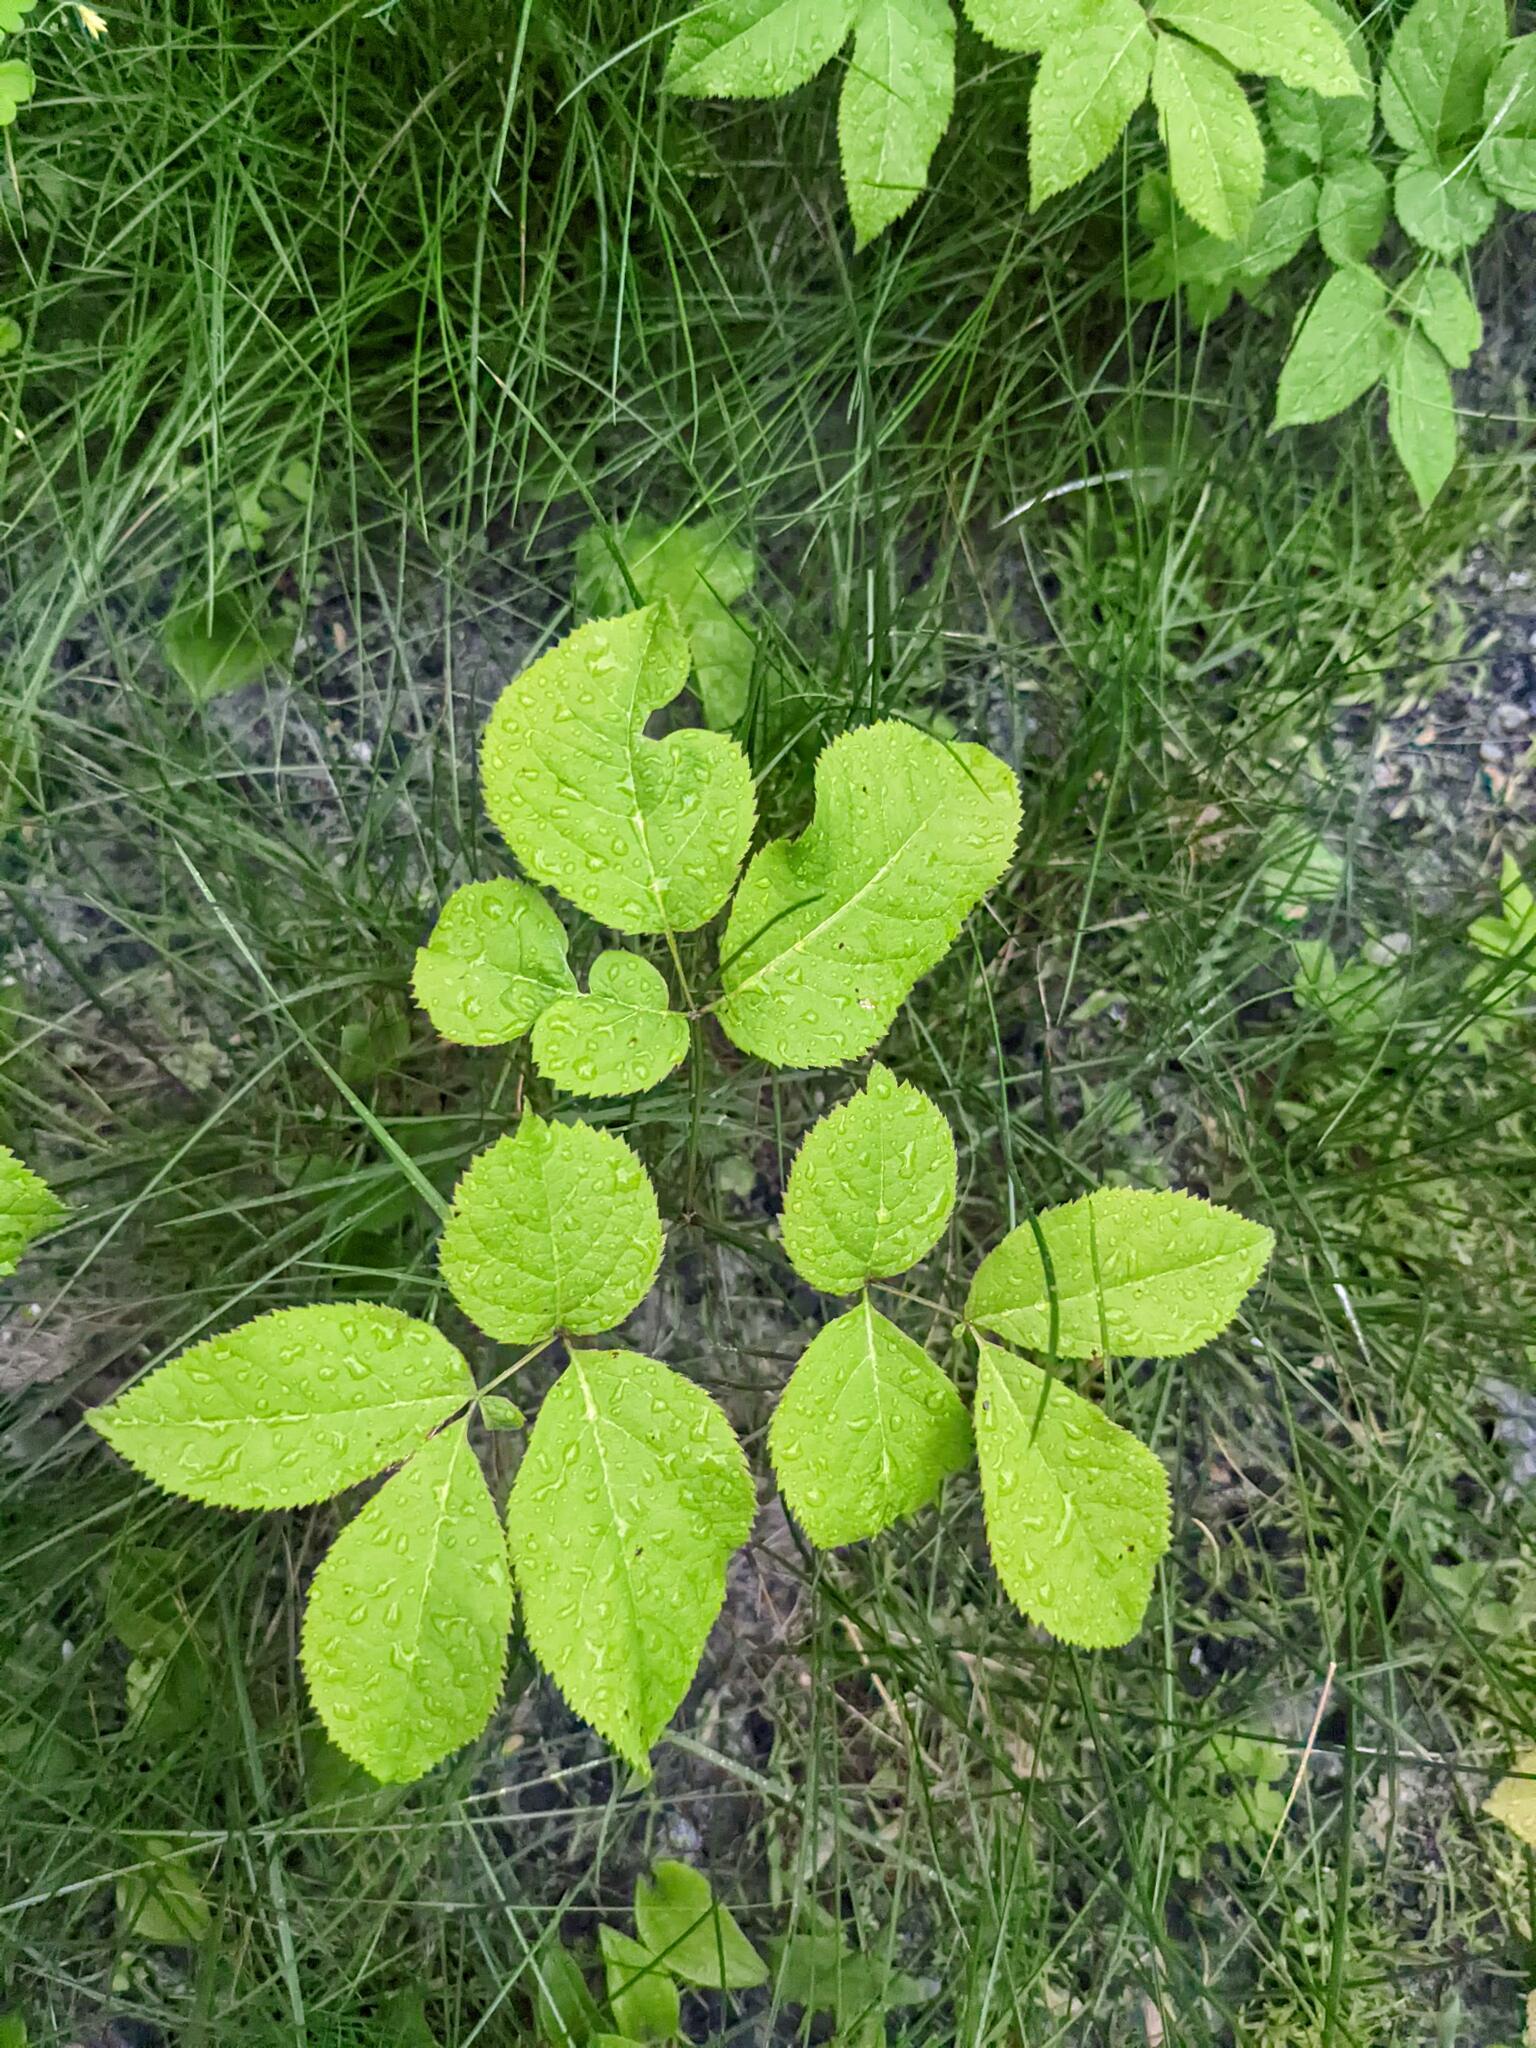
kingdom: Plantae
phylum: Tracheophyta
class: Magnoliopsida
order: Apiales
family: Araliaceae
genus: Aralia
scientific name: Aralia nudicaulis
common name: Wild sarsaparilla
